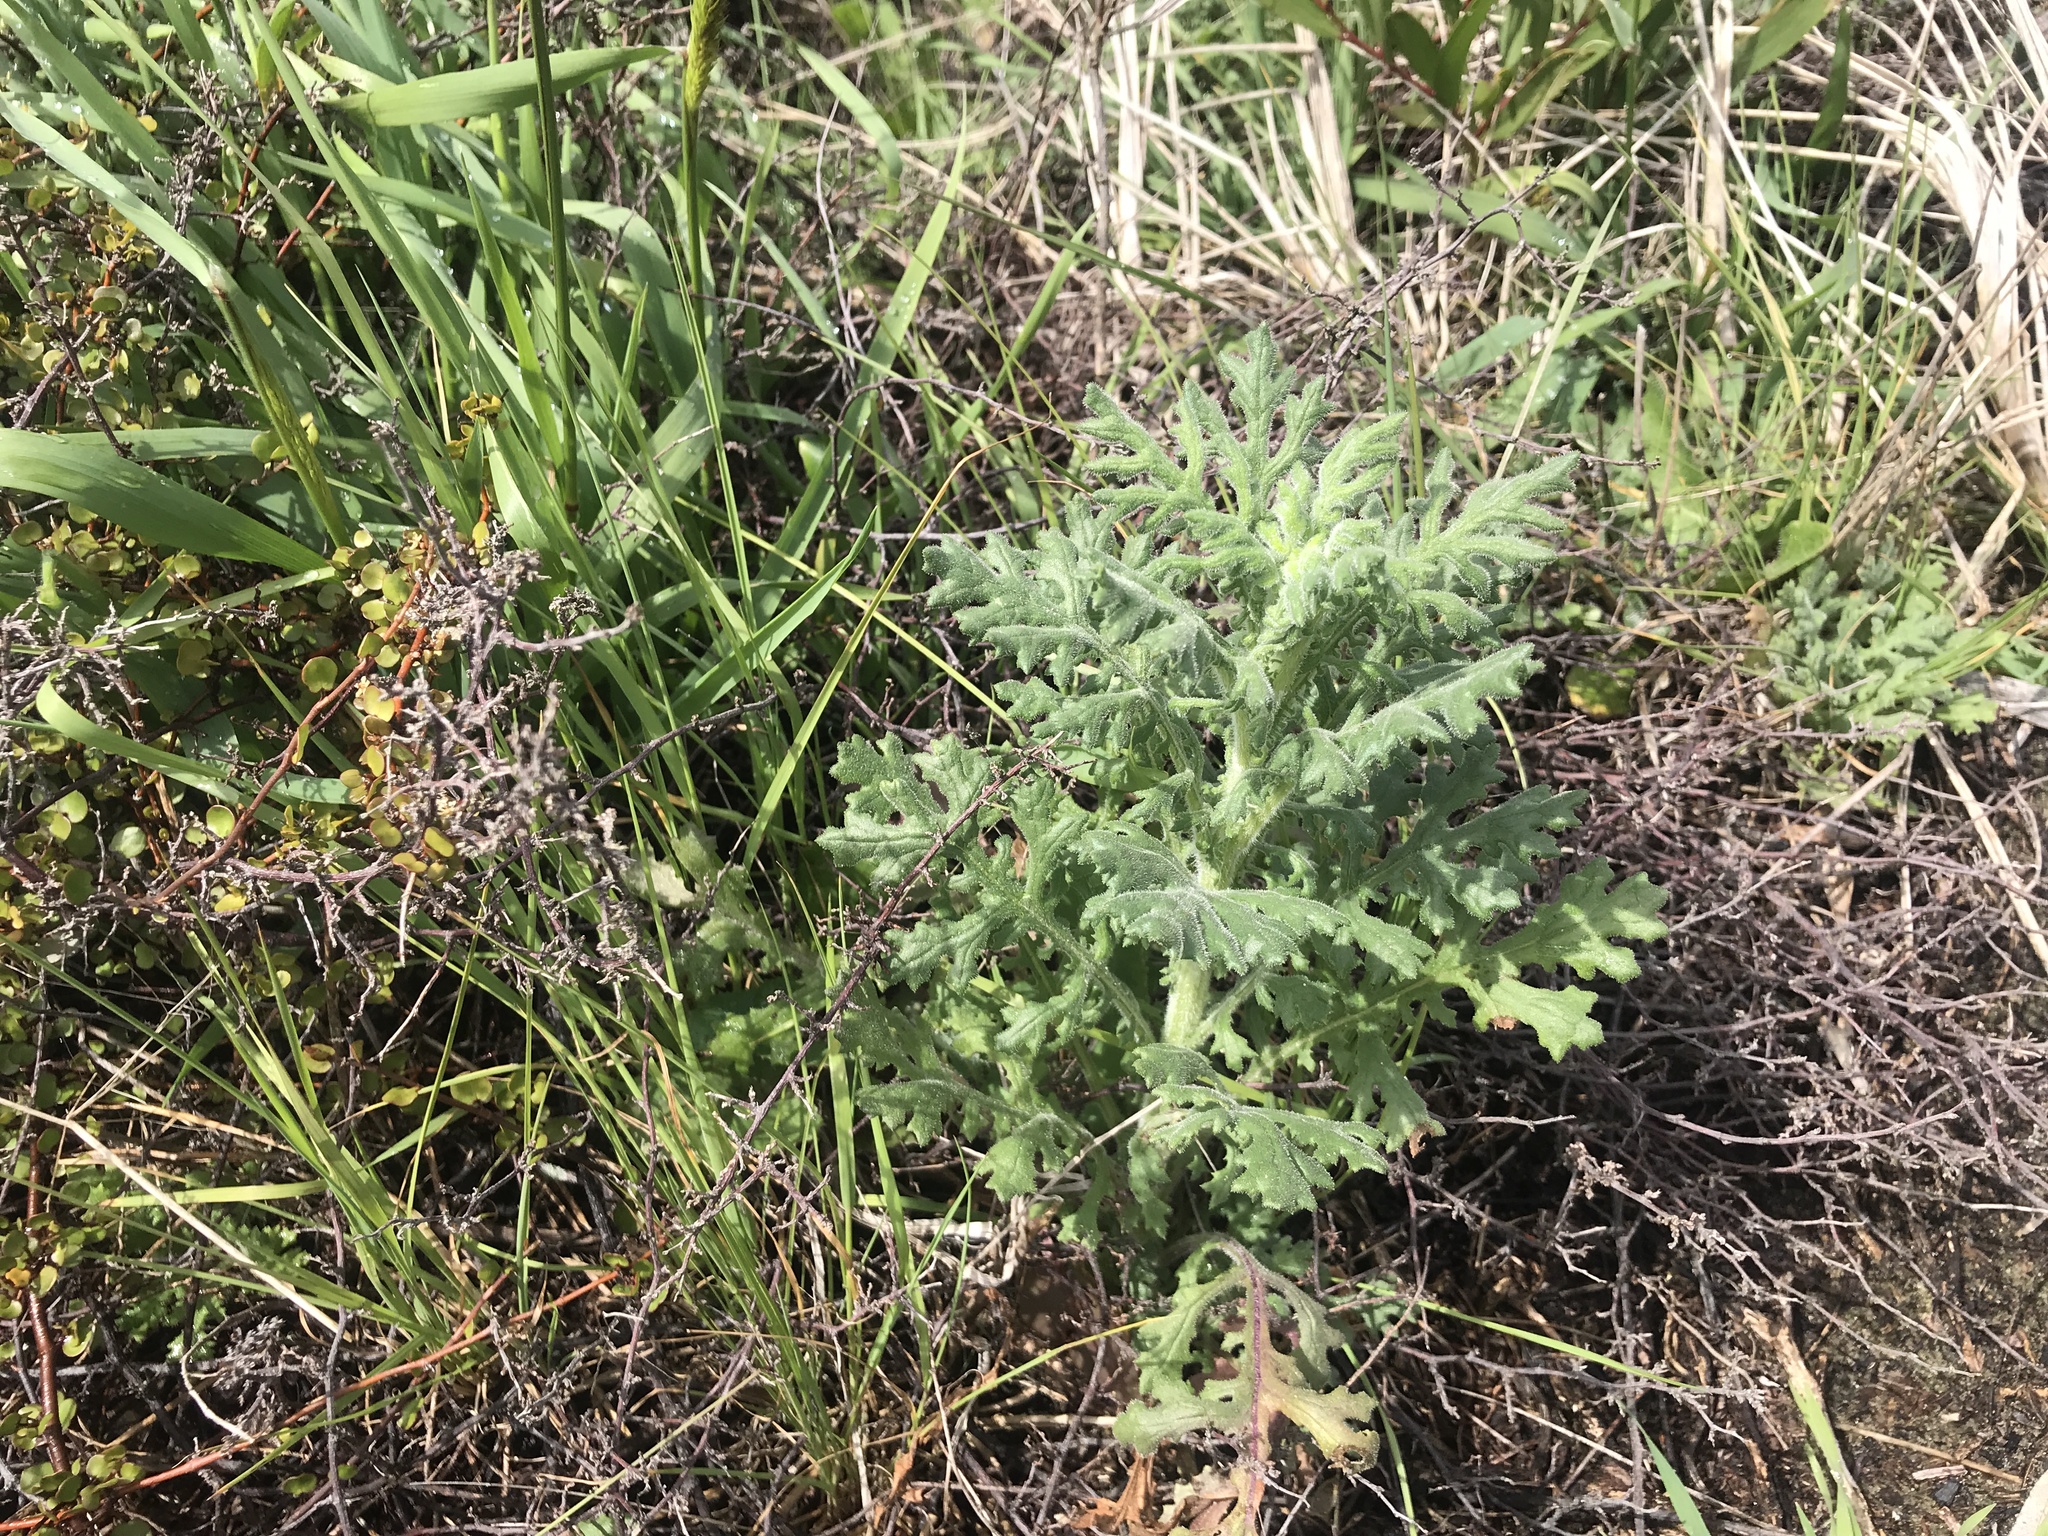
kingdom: Plantae
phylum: Tracheophyta
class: Magnoliopsida
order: Asterales
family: Asteraceae
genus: Senecio
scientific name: Senecio sylvaticus
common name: Woodland ragwort
